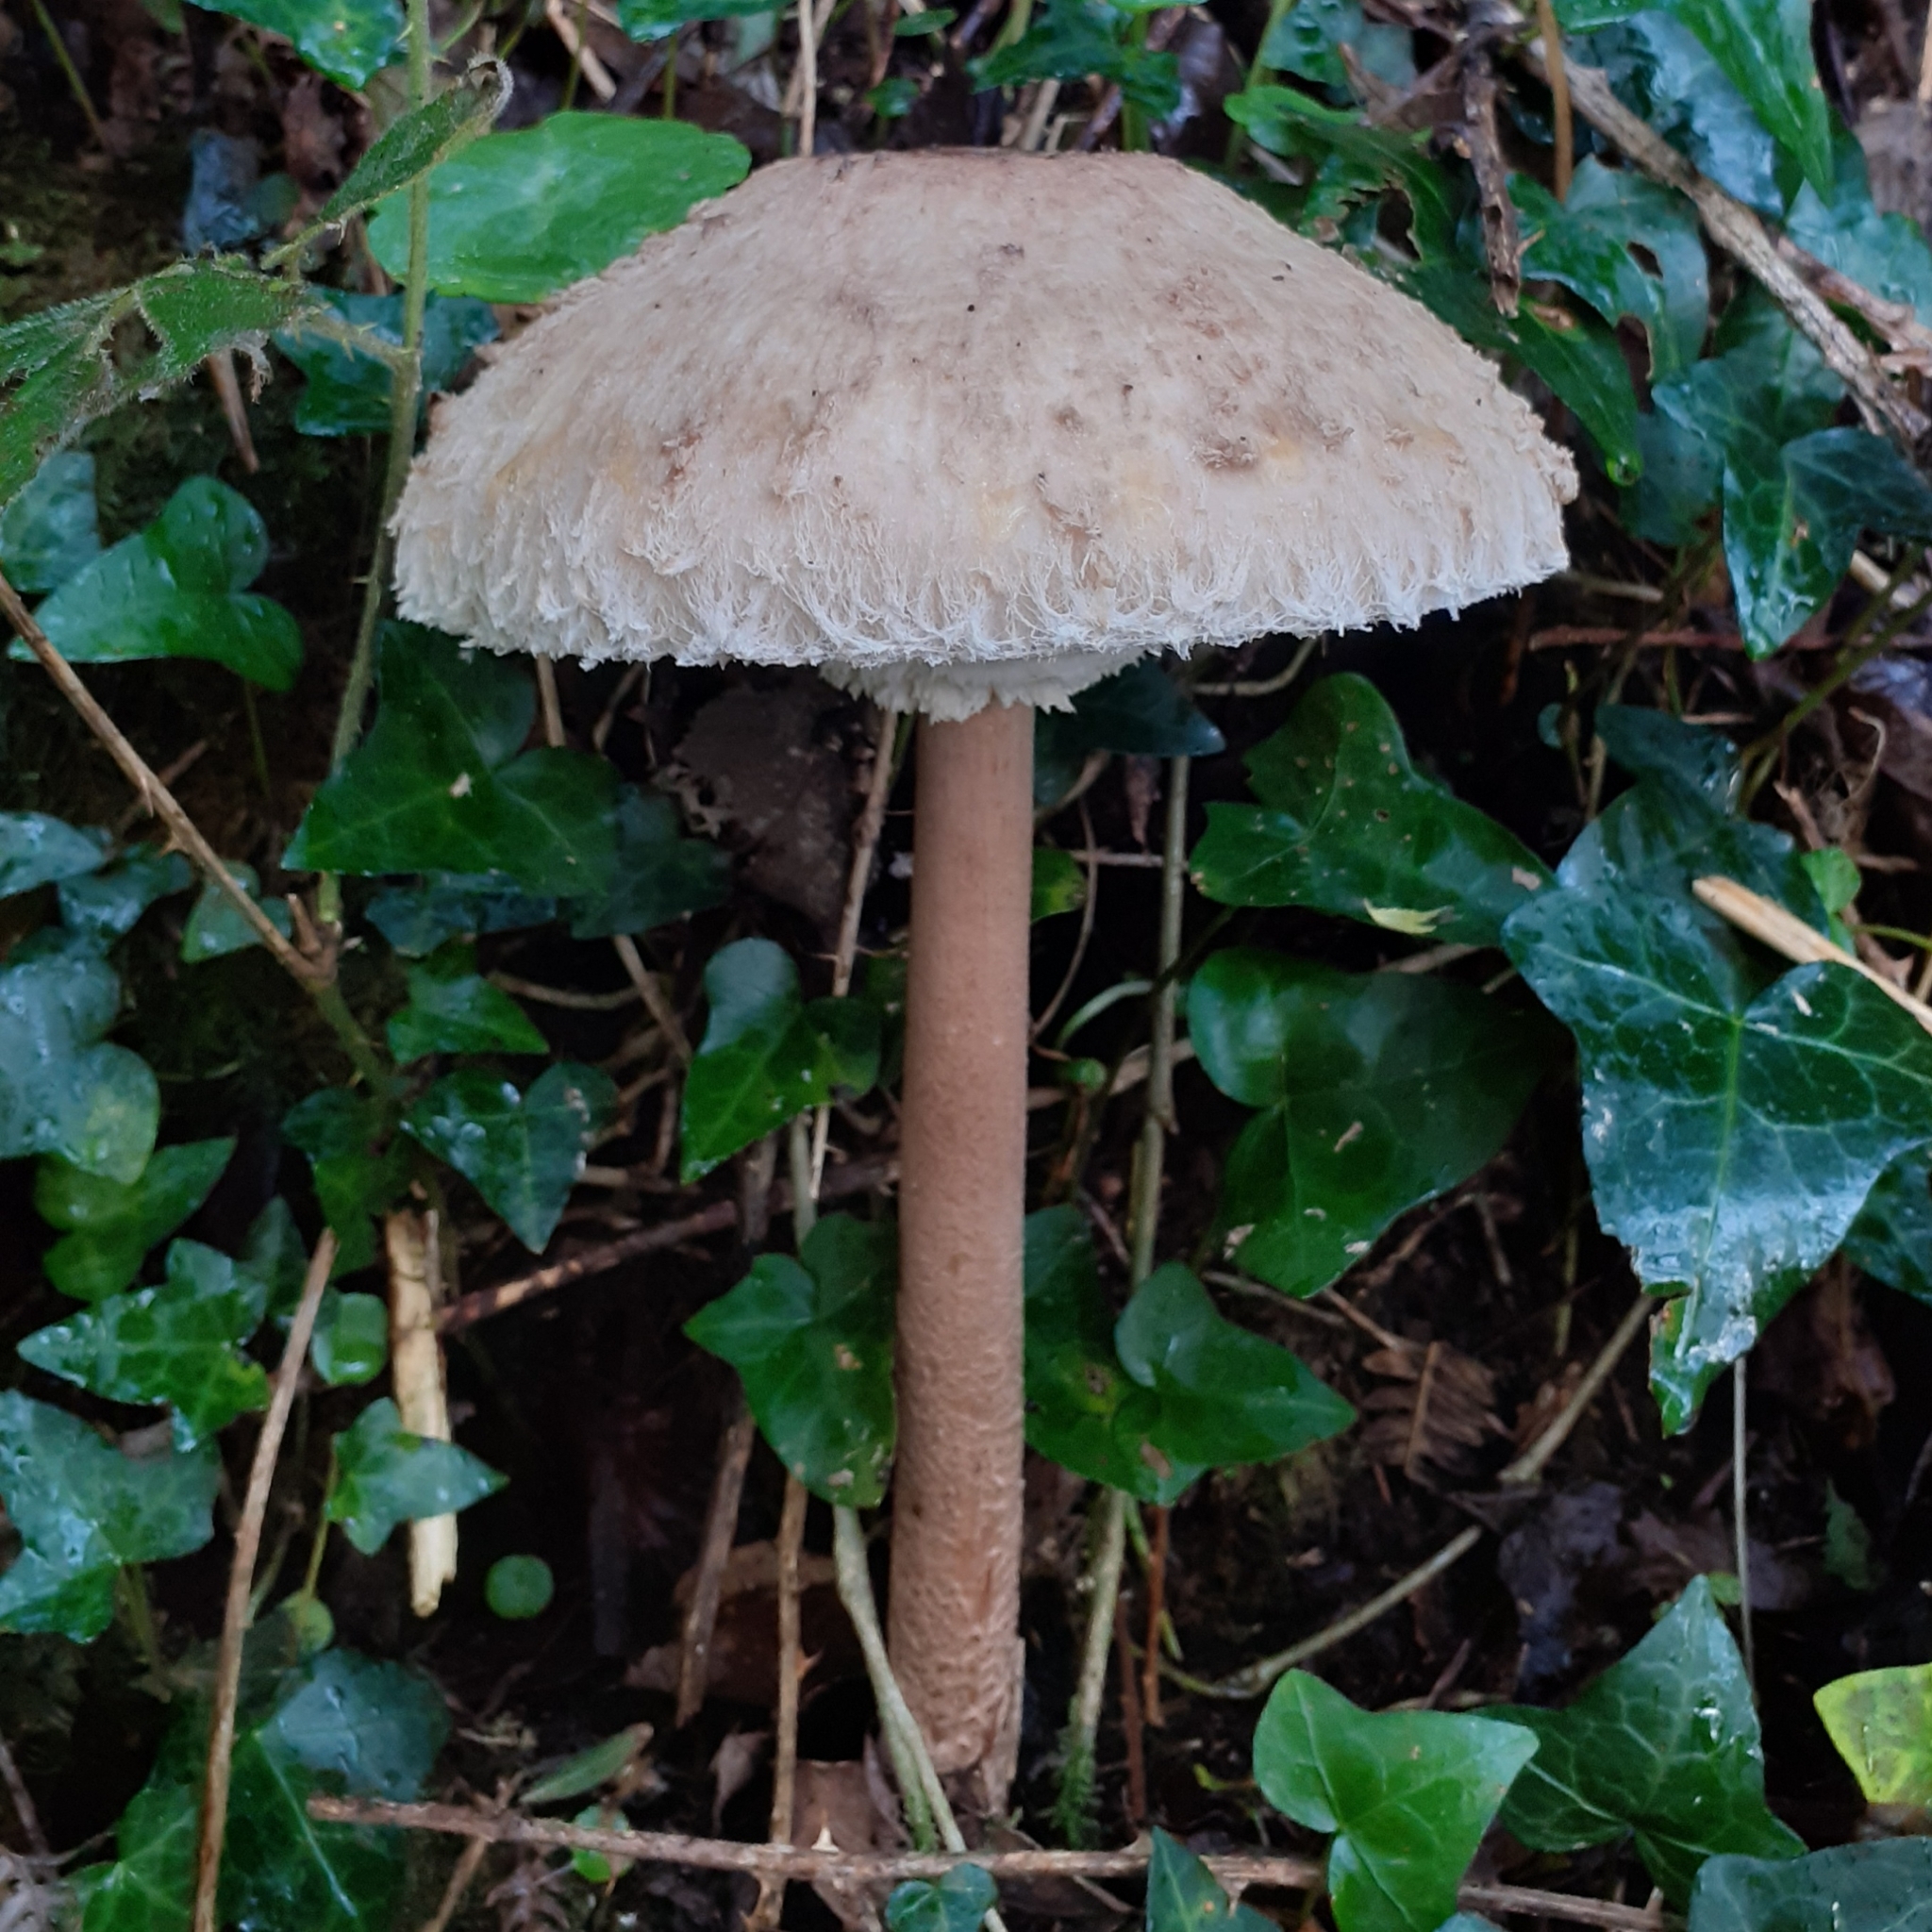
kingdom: Fungi
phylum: Basidiomycota
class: Agaricomycetes
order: Agaricales
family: Agaricaceae
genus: Macrolepiota
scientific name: Macrolepiota procera
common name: Parasol
